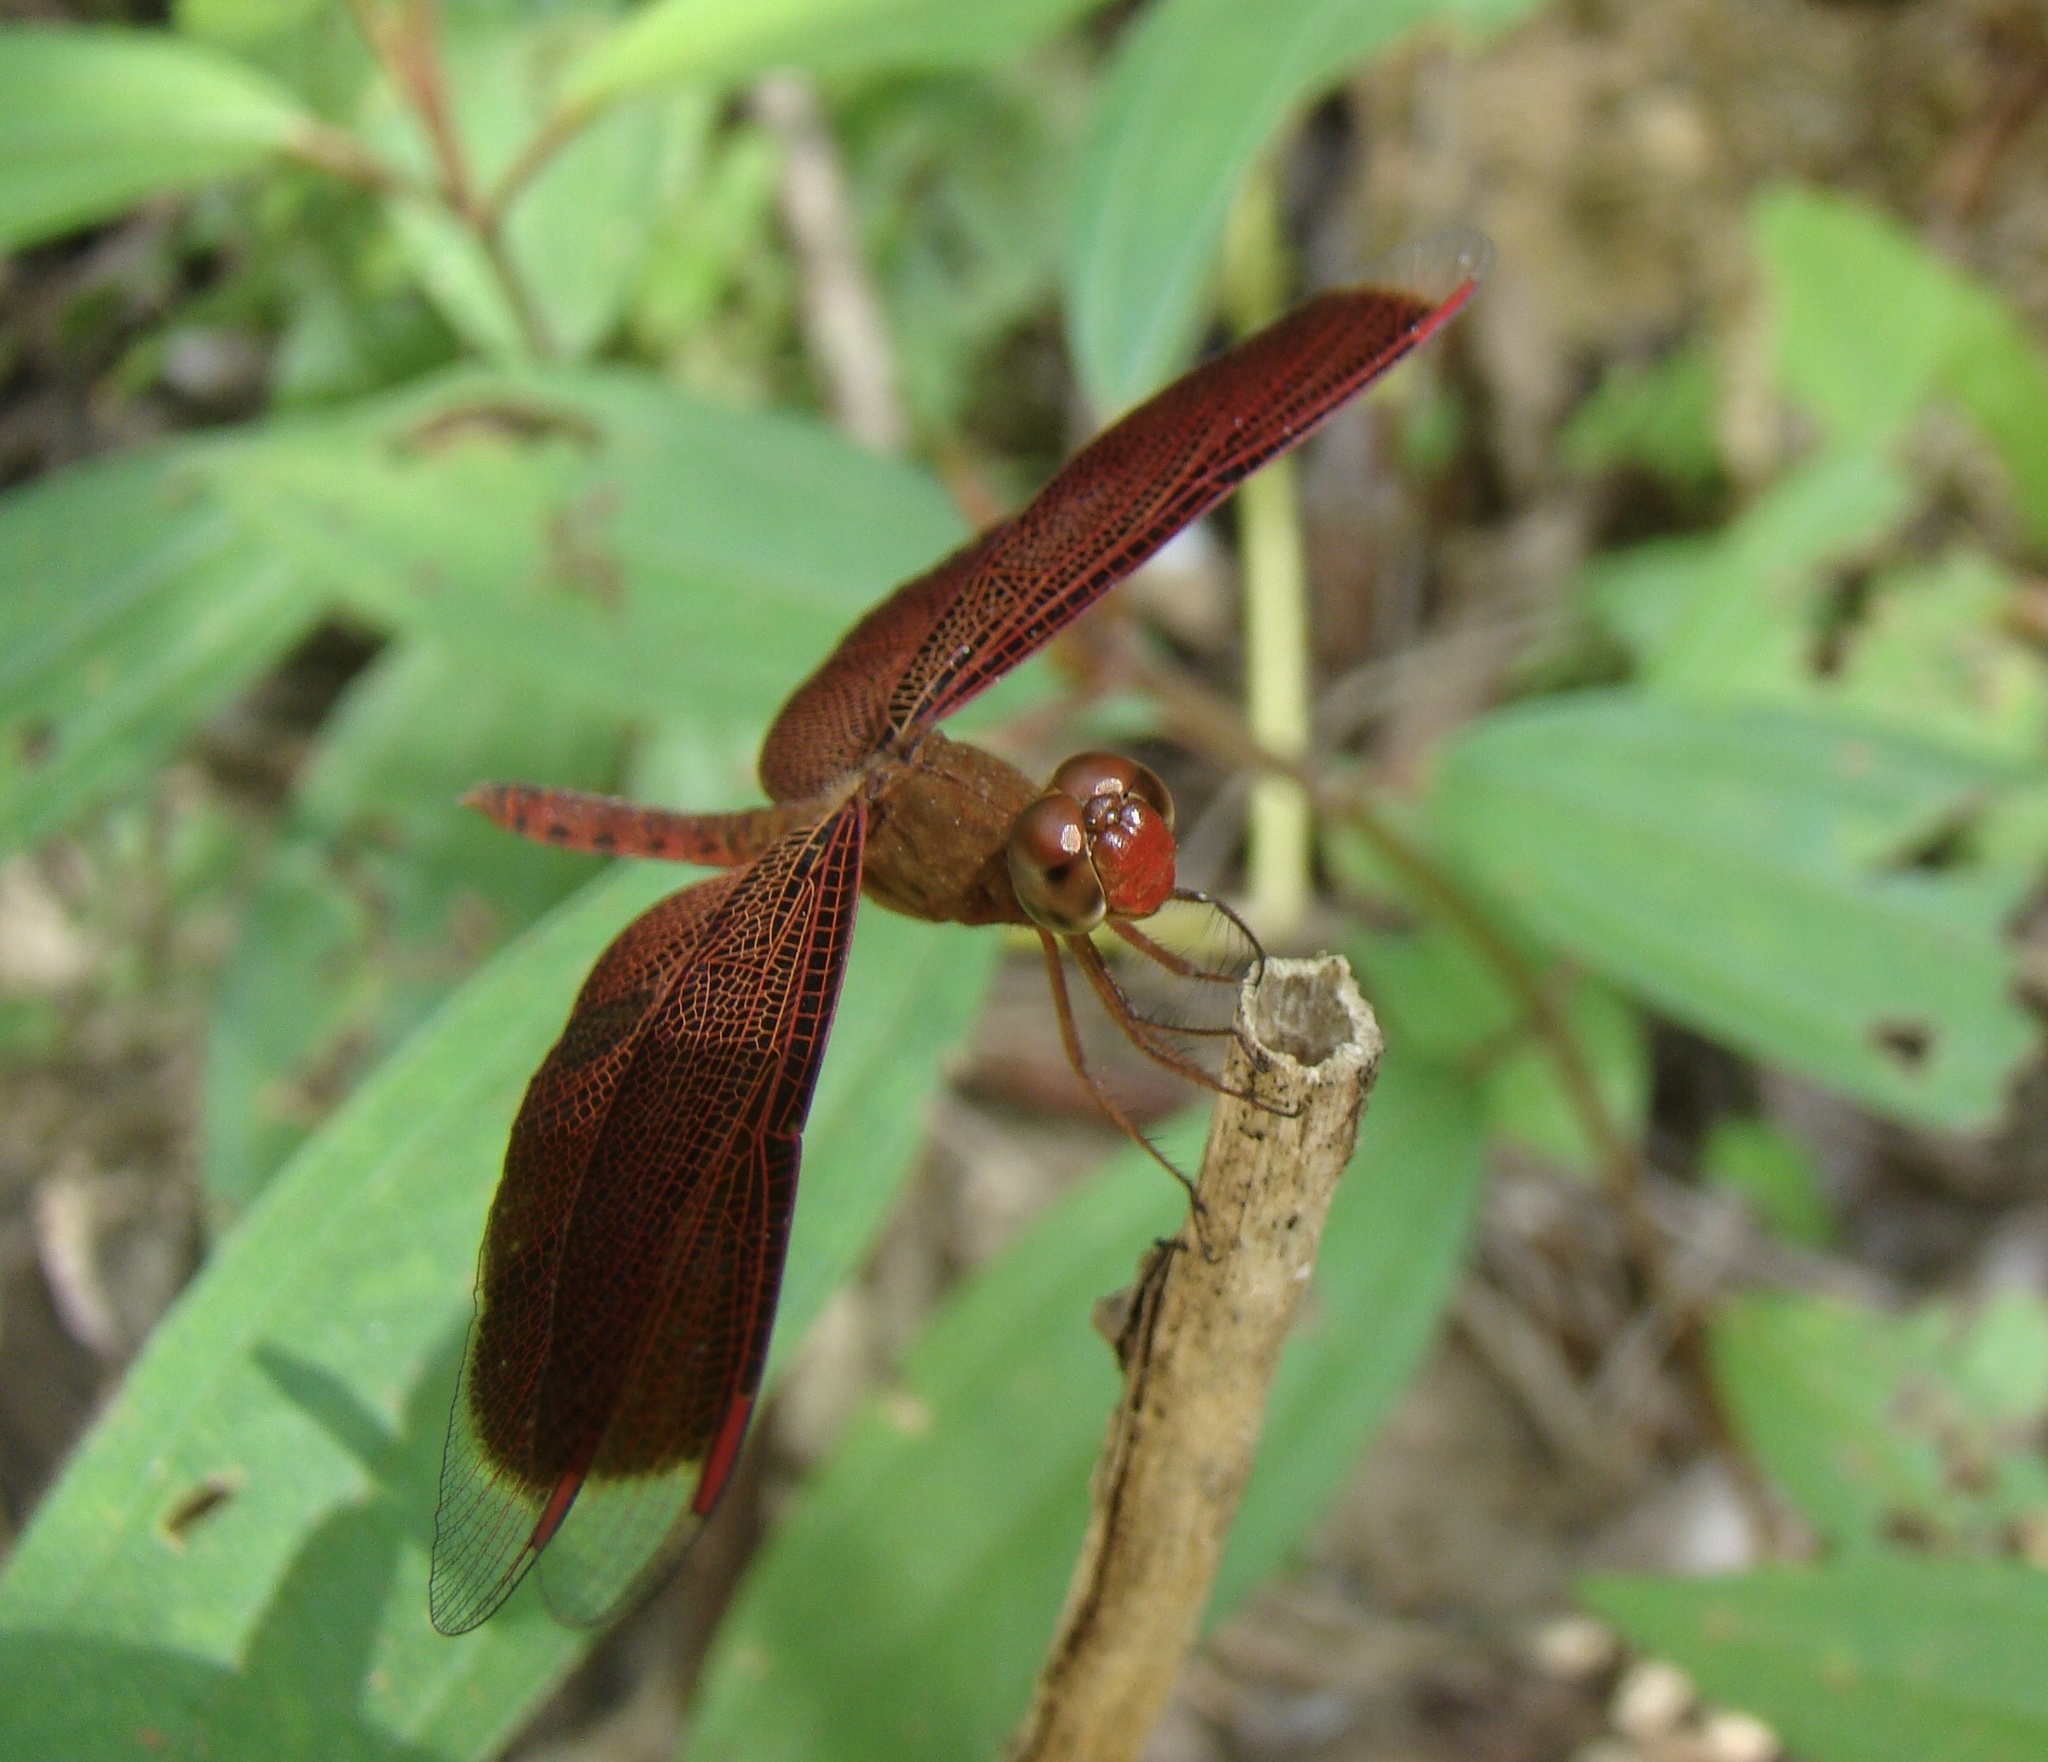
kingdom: Animalia
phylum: Arthropoda
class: Insecta
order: Odonata
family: Libellulidae
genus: Neurothemis
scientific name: Neurothemis fluctuans
